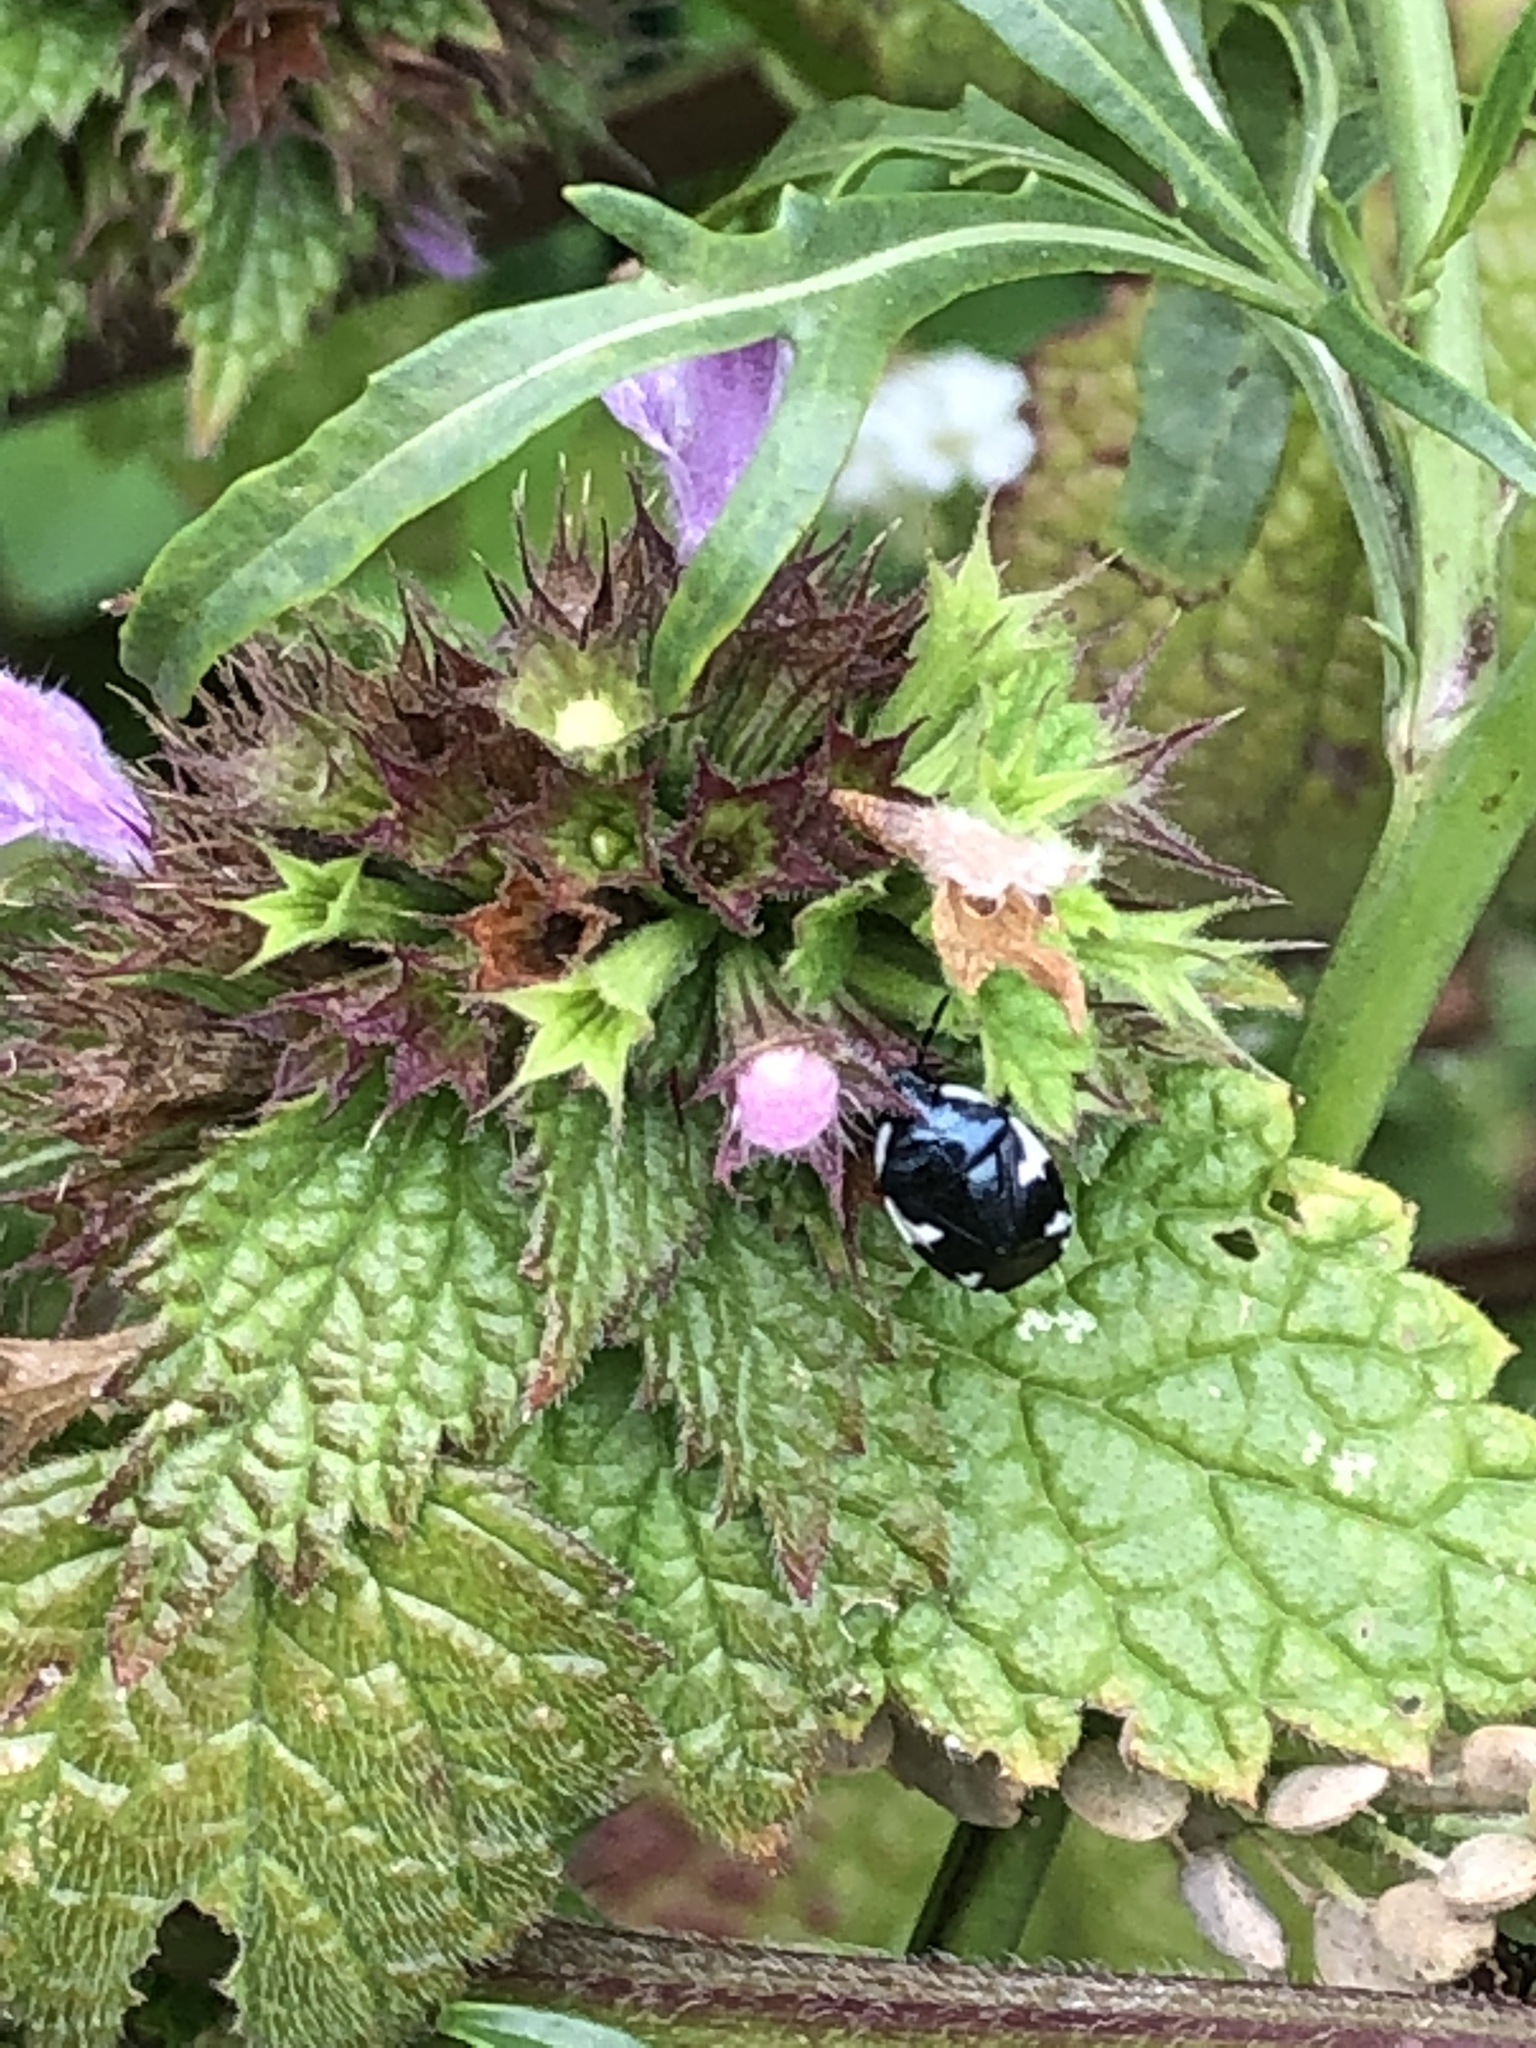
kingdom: Animalia
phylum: Arthropoda
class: Insecta
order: Hemiptera
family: Cydnidae
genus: Tritomegas
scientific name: Tritomegas sexmaculatus
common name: Rambur's pied shieldbug
